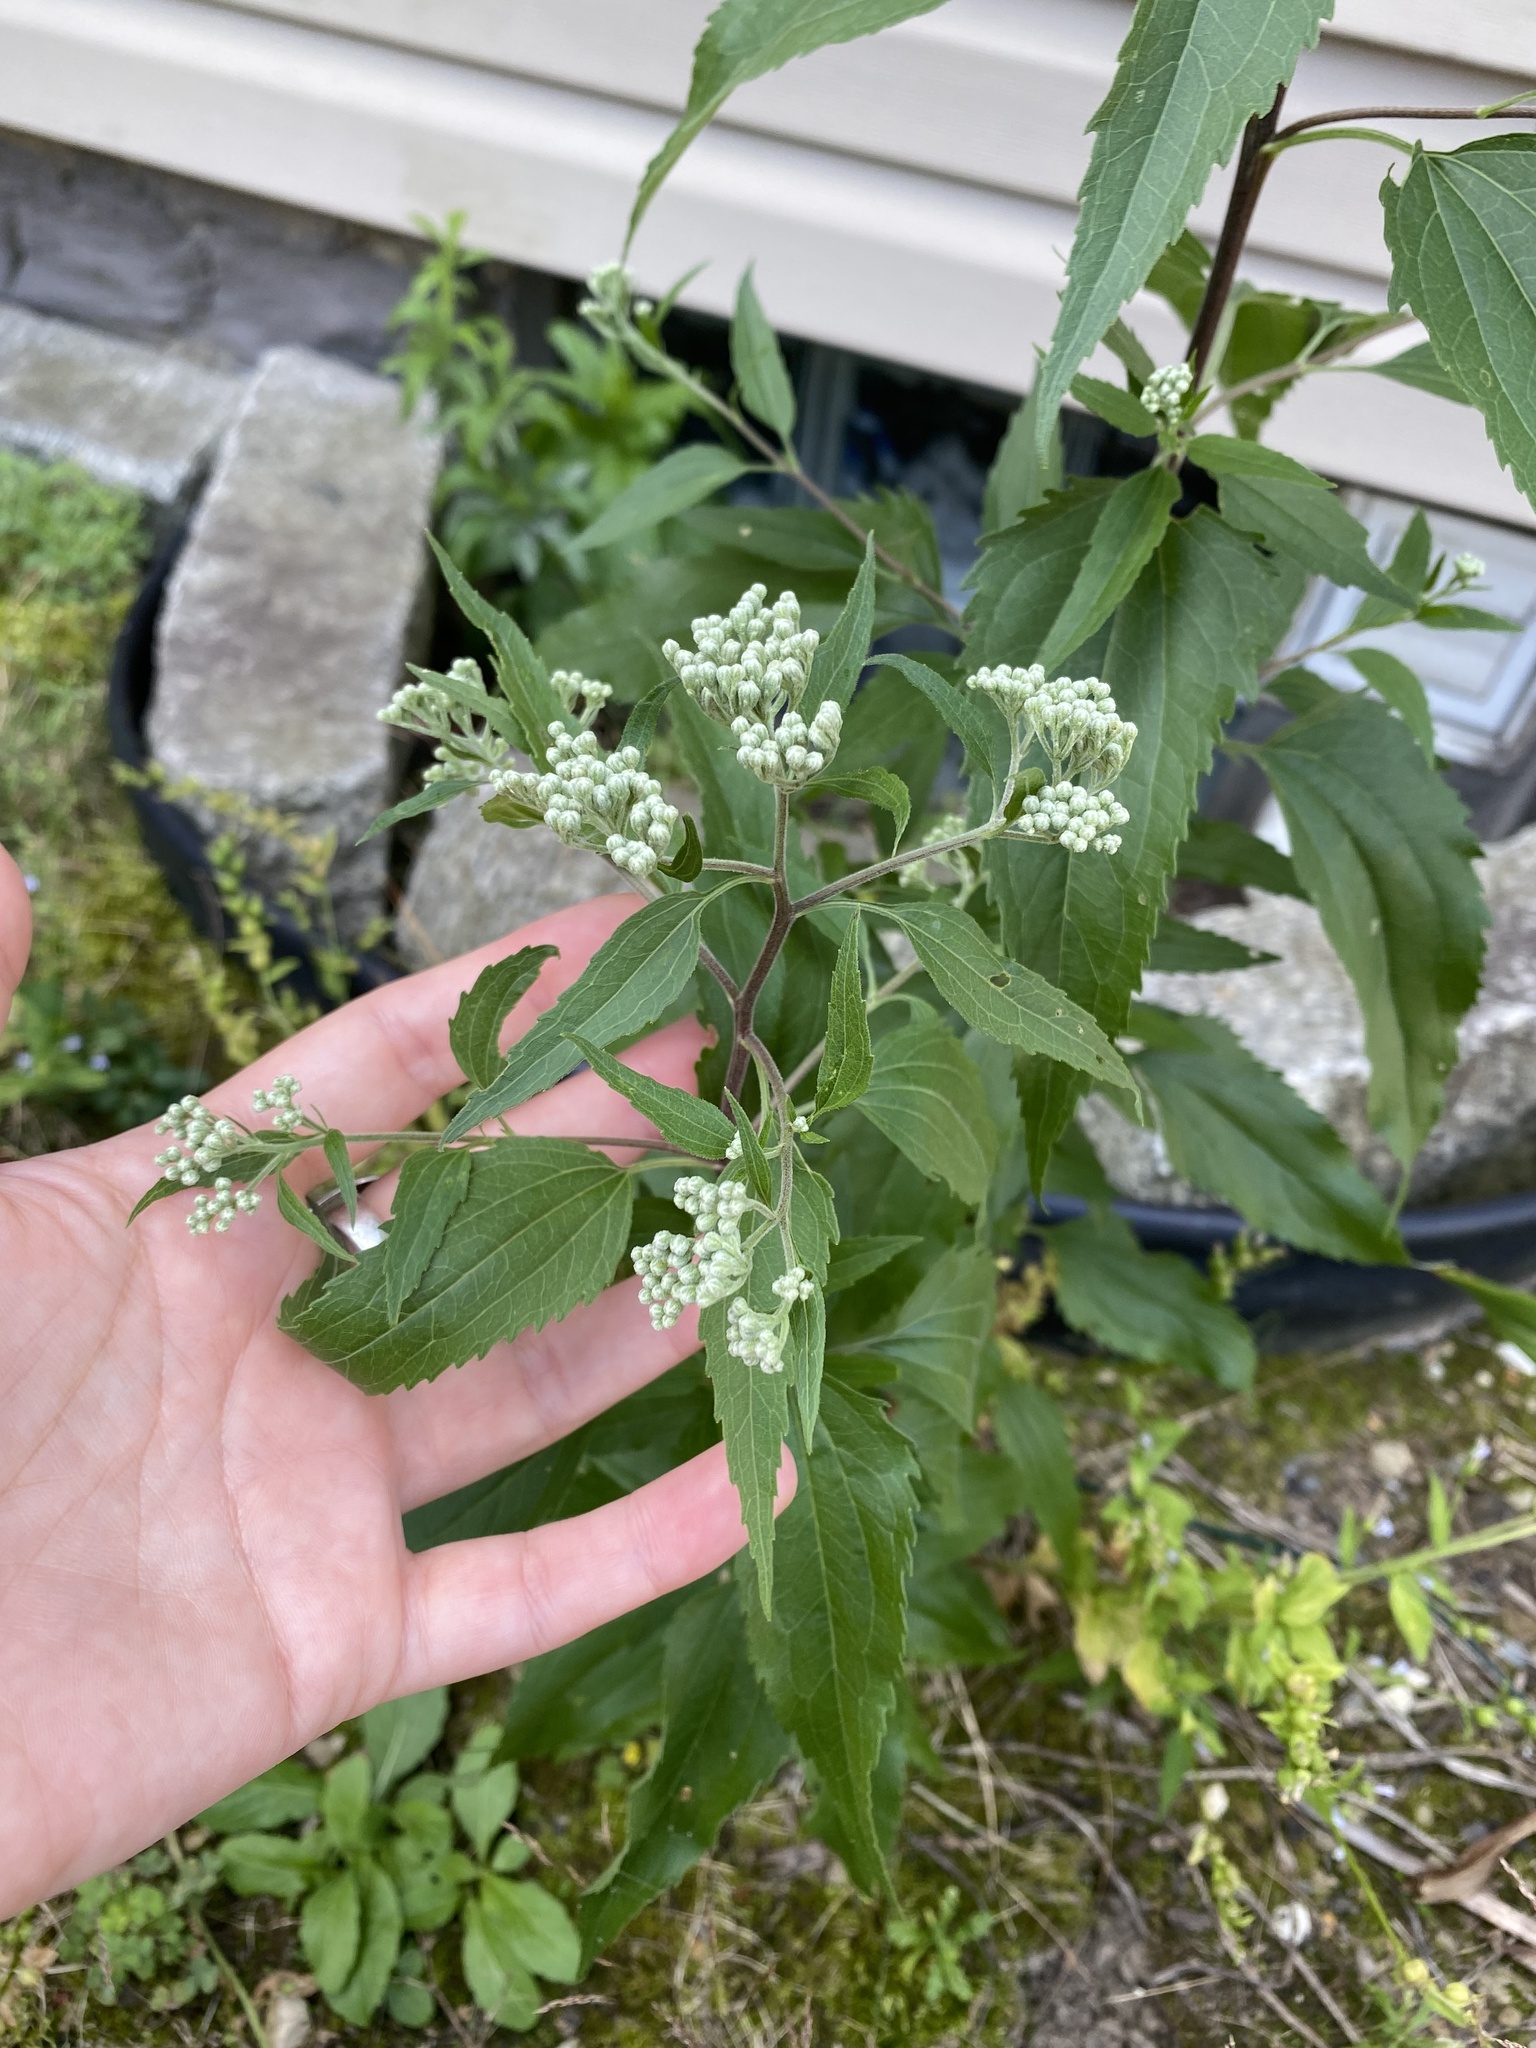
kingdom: Plantae
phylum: Tracheophyta
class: Magnoliopsida
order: Asterales
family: Asteraceae
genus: Eupatorium
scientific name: Eupatorium serotinum
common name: Late boneset
